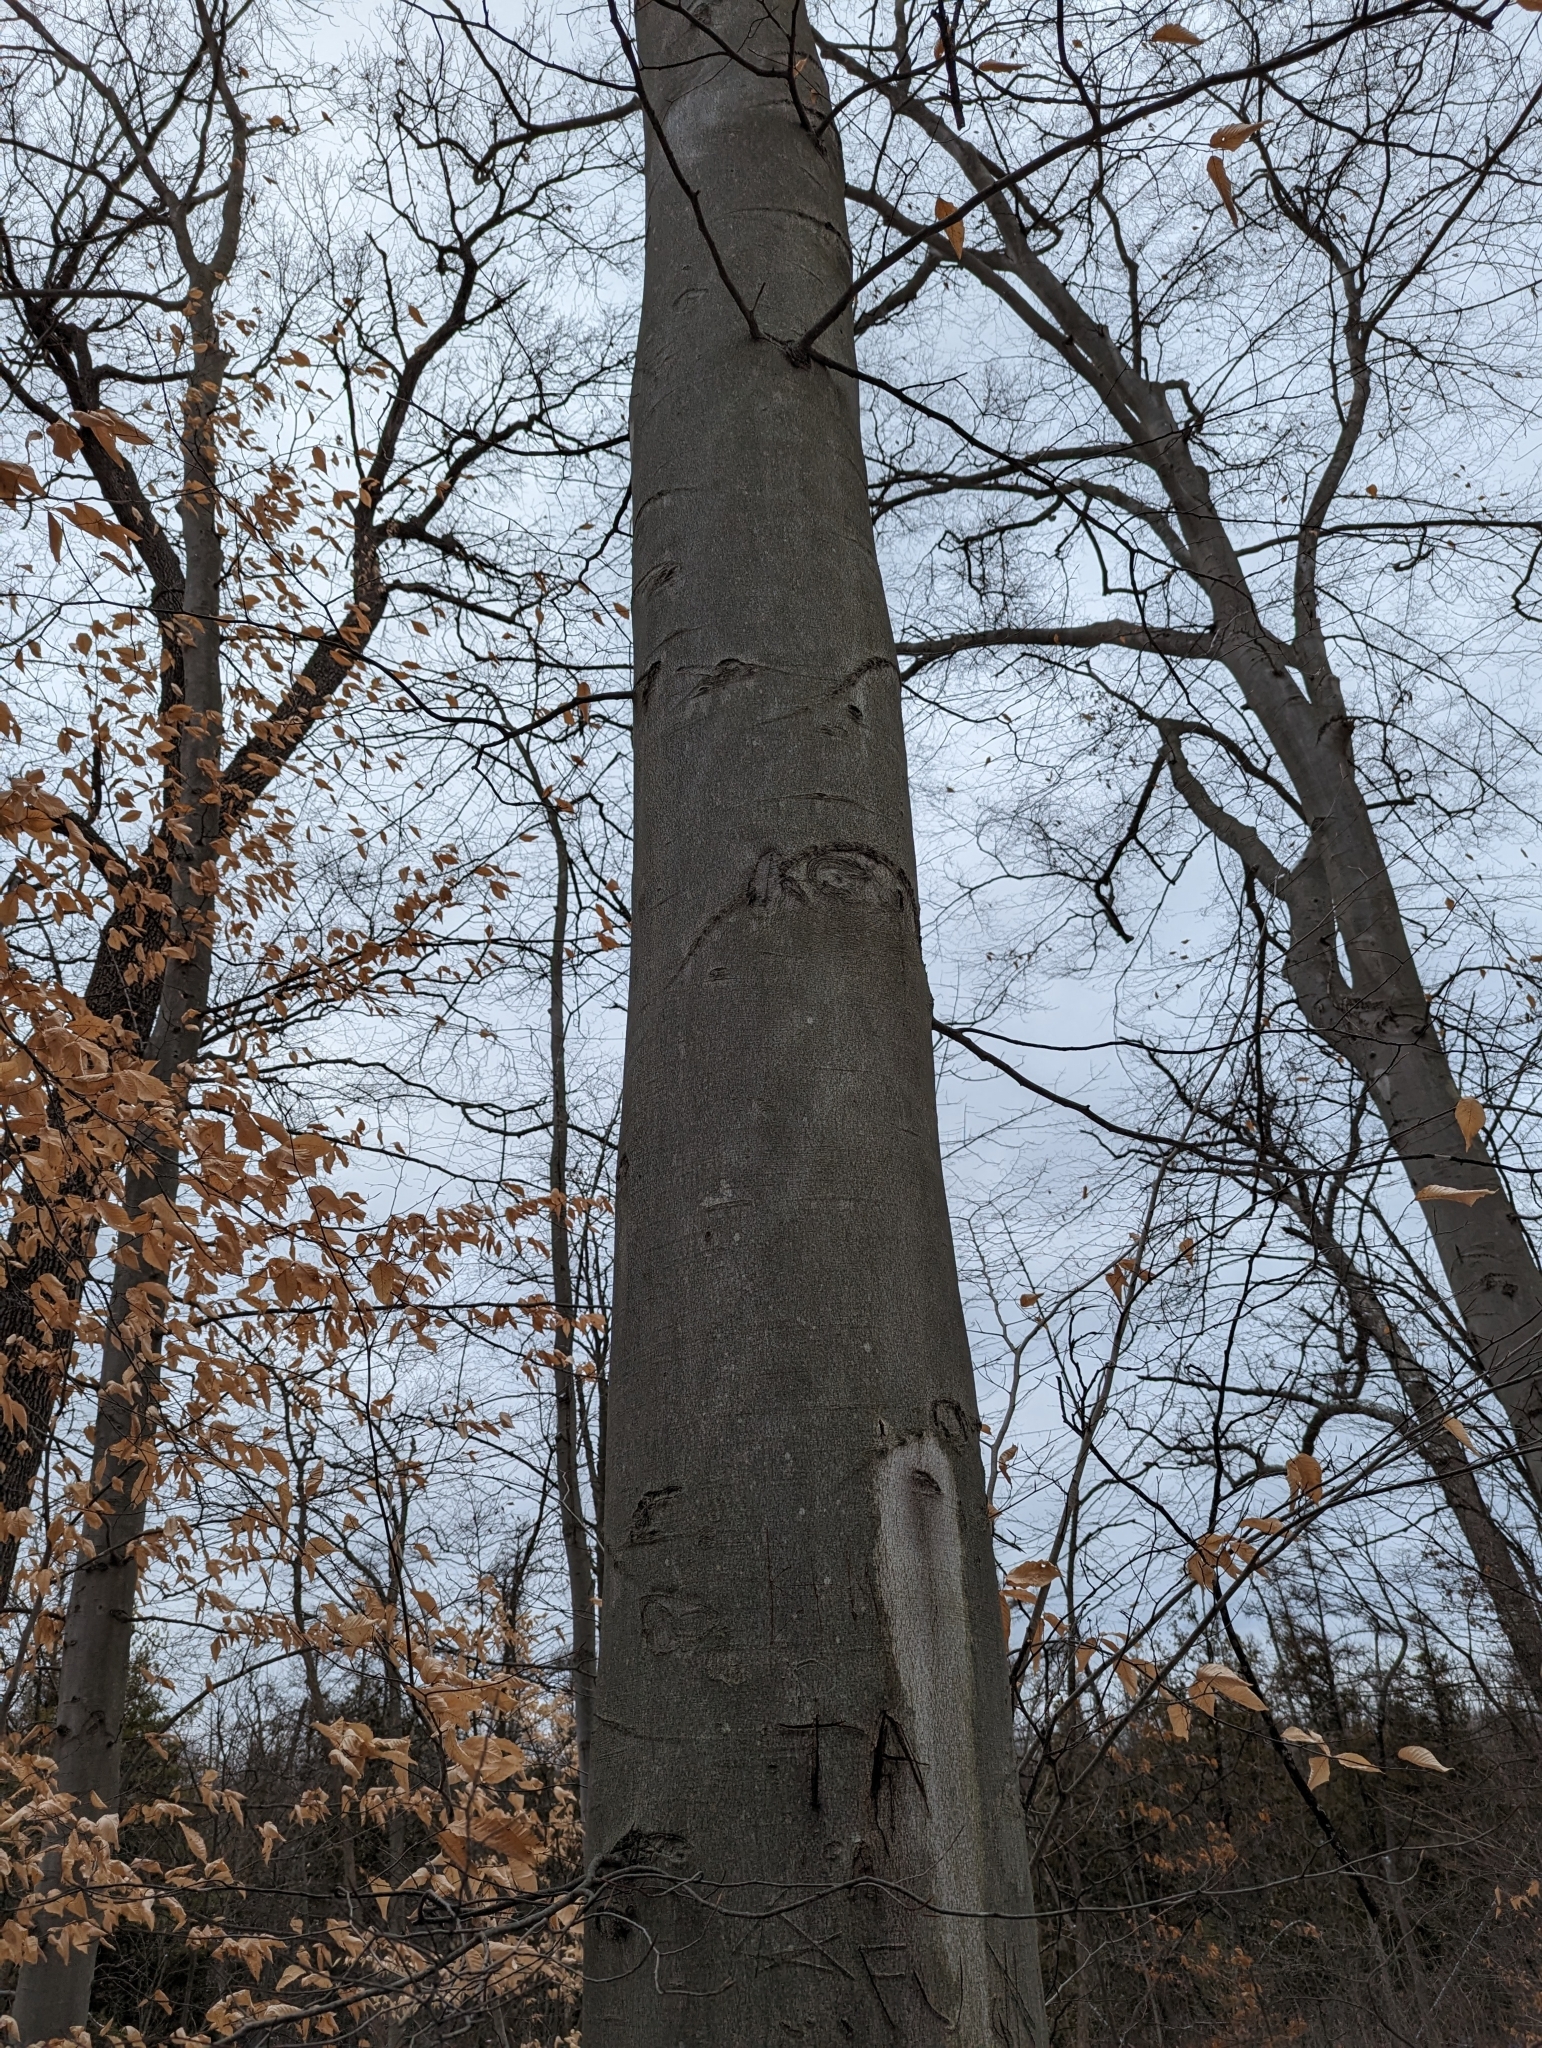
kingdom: Plantae
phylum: Tracheophyta
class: Magnoliopsida
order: Fagales
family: Fagaceae
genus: Fagus
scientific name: Fagus grandifolia
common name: American beech
